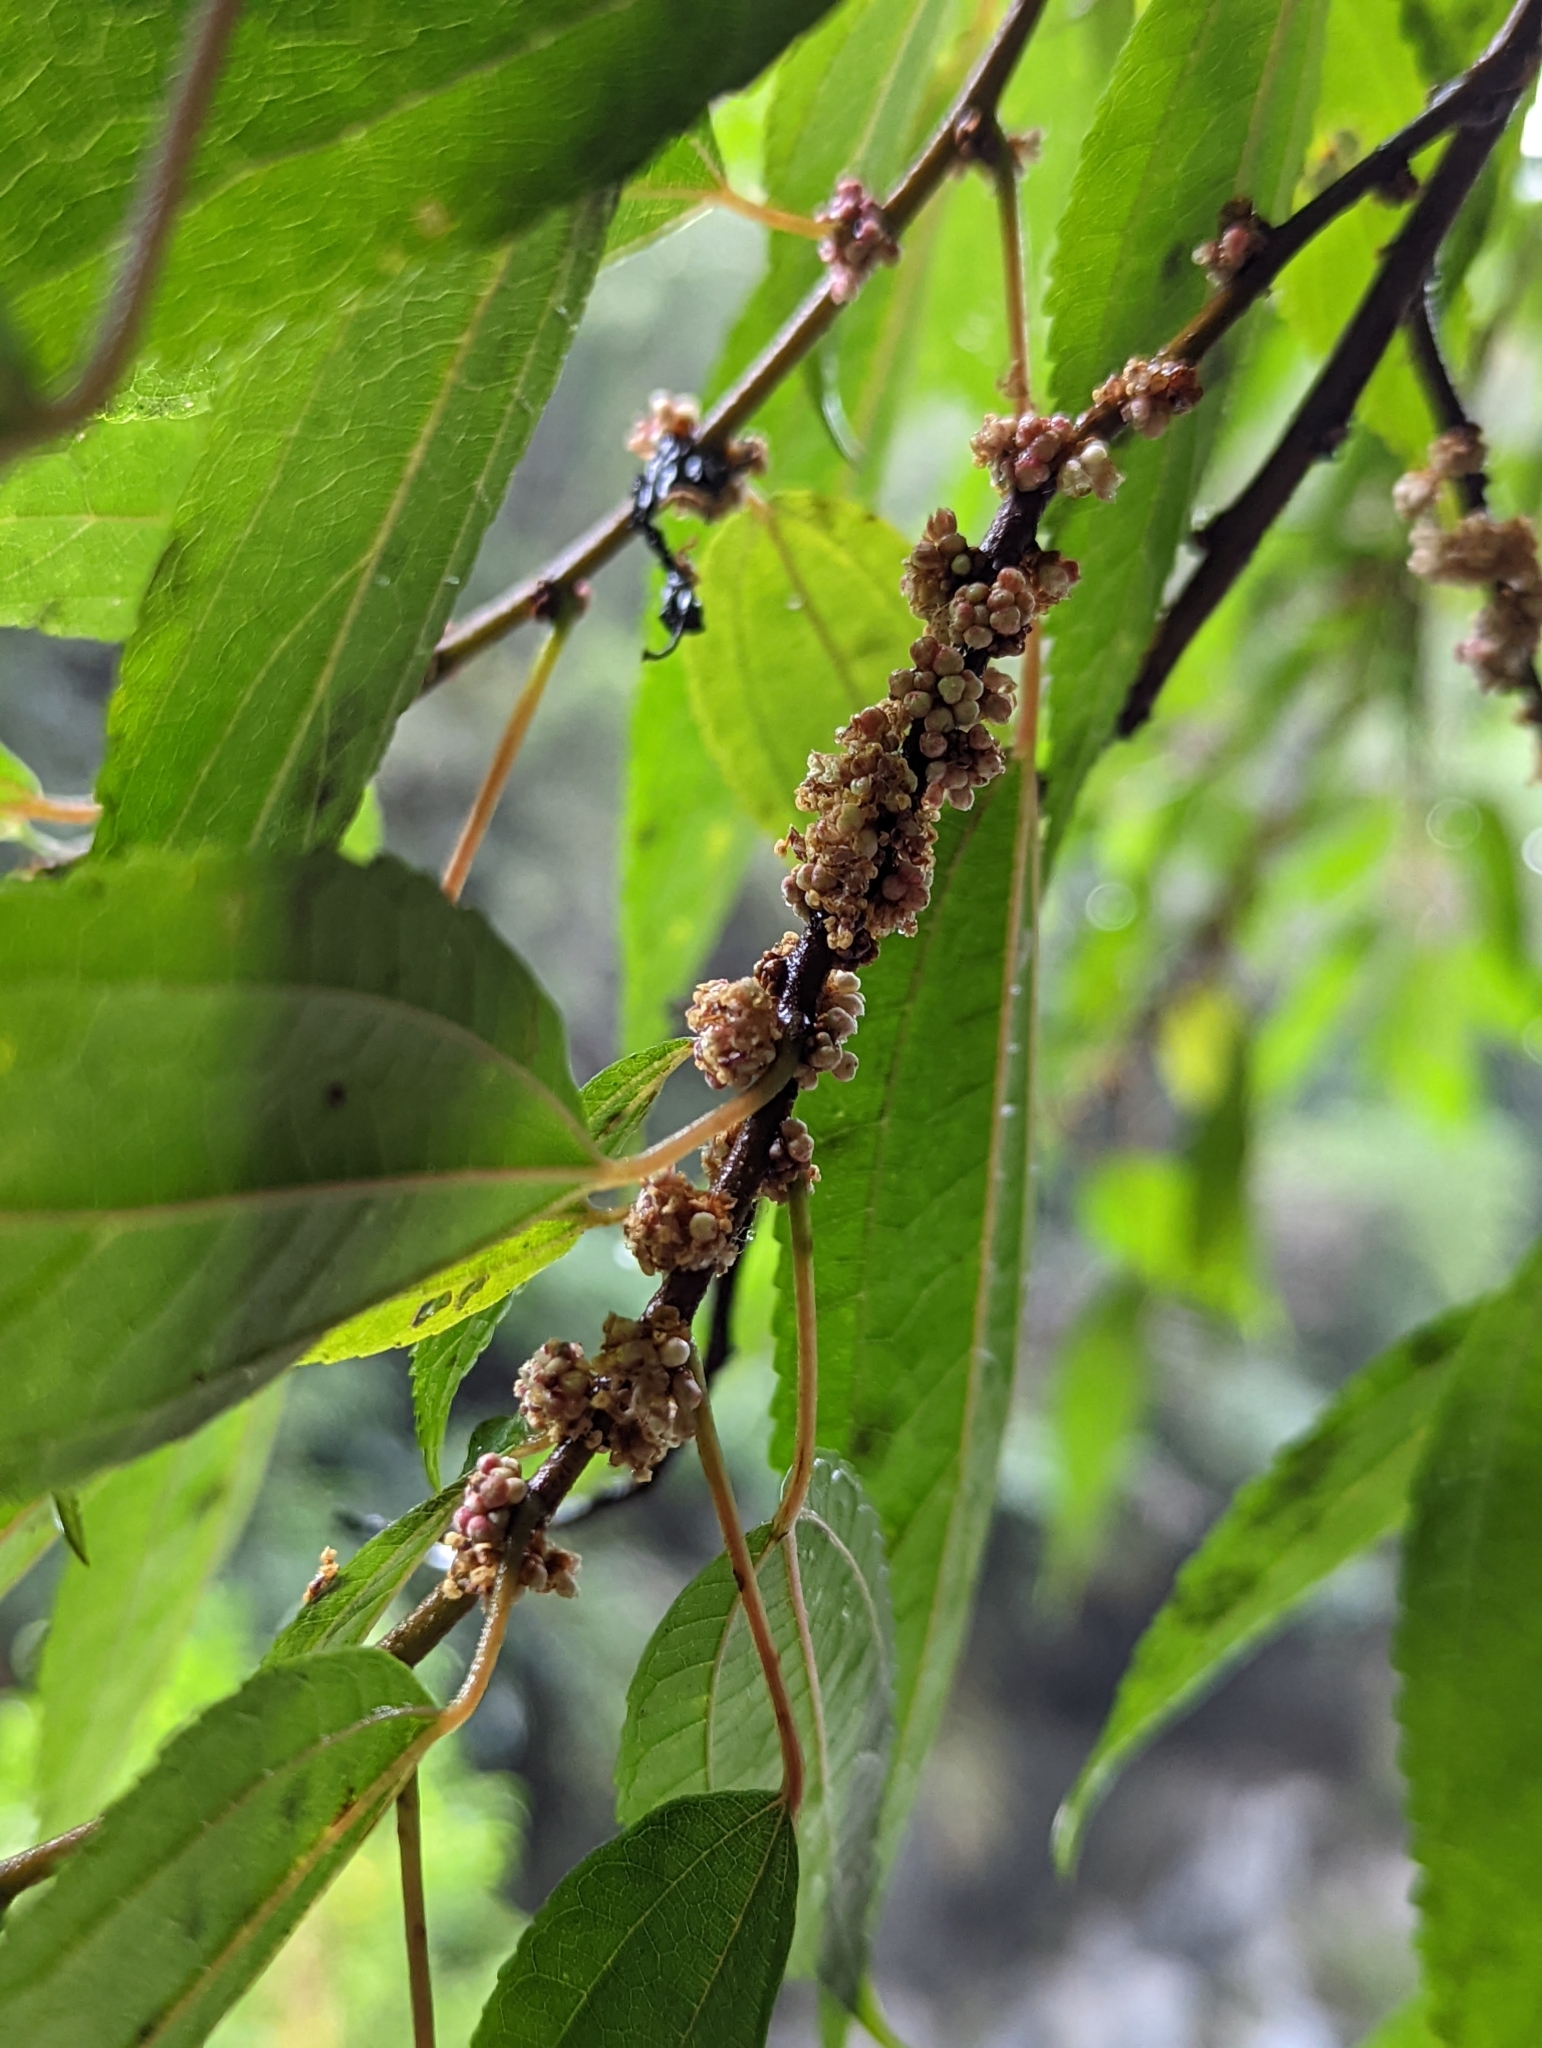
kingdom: Plantae
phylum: Tracheophyta
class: Magnoliopsida
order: Rosales
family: Urticaceae
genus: Oreocnide
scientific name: Oreocnide pedunculata
